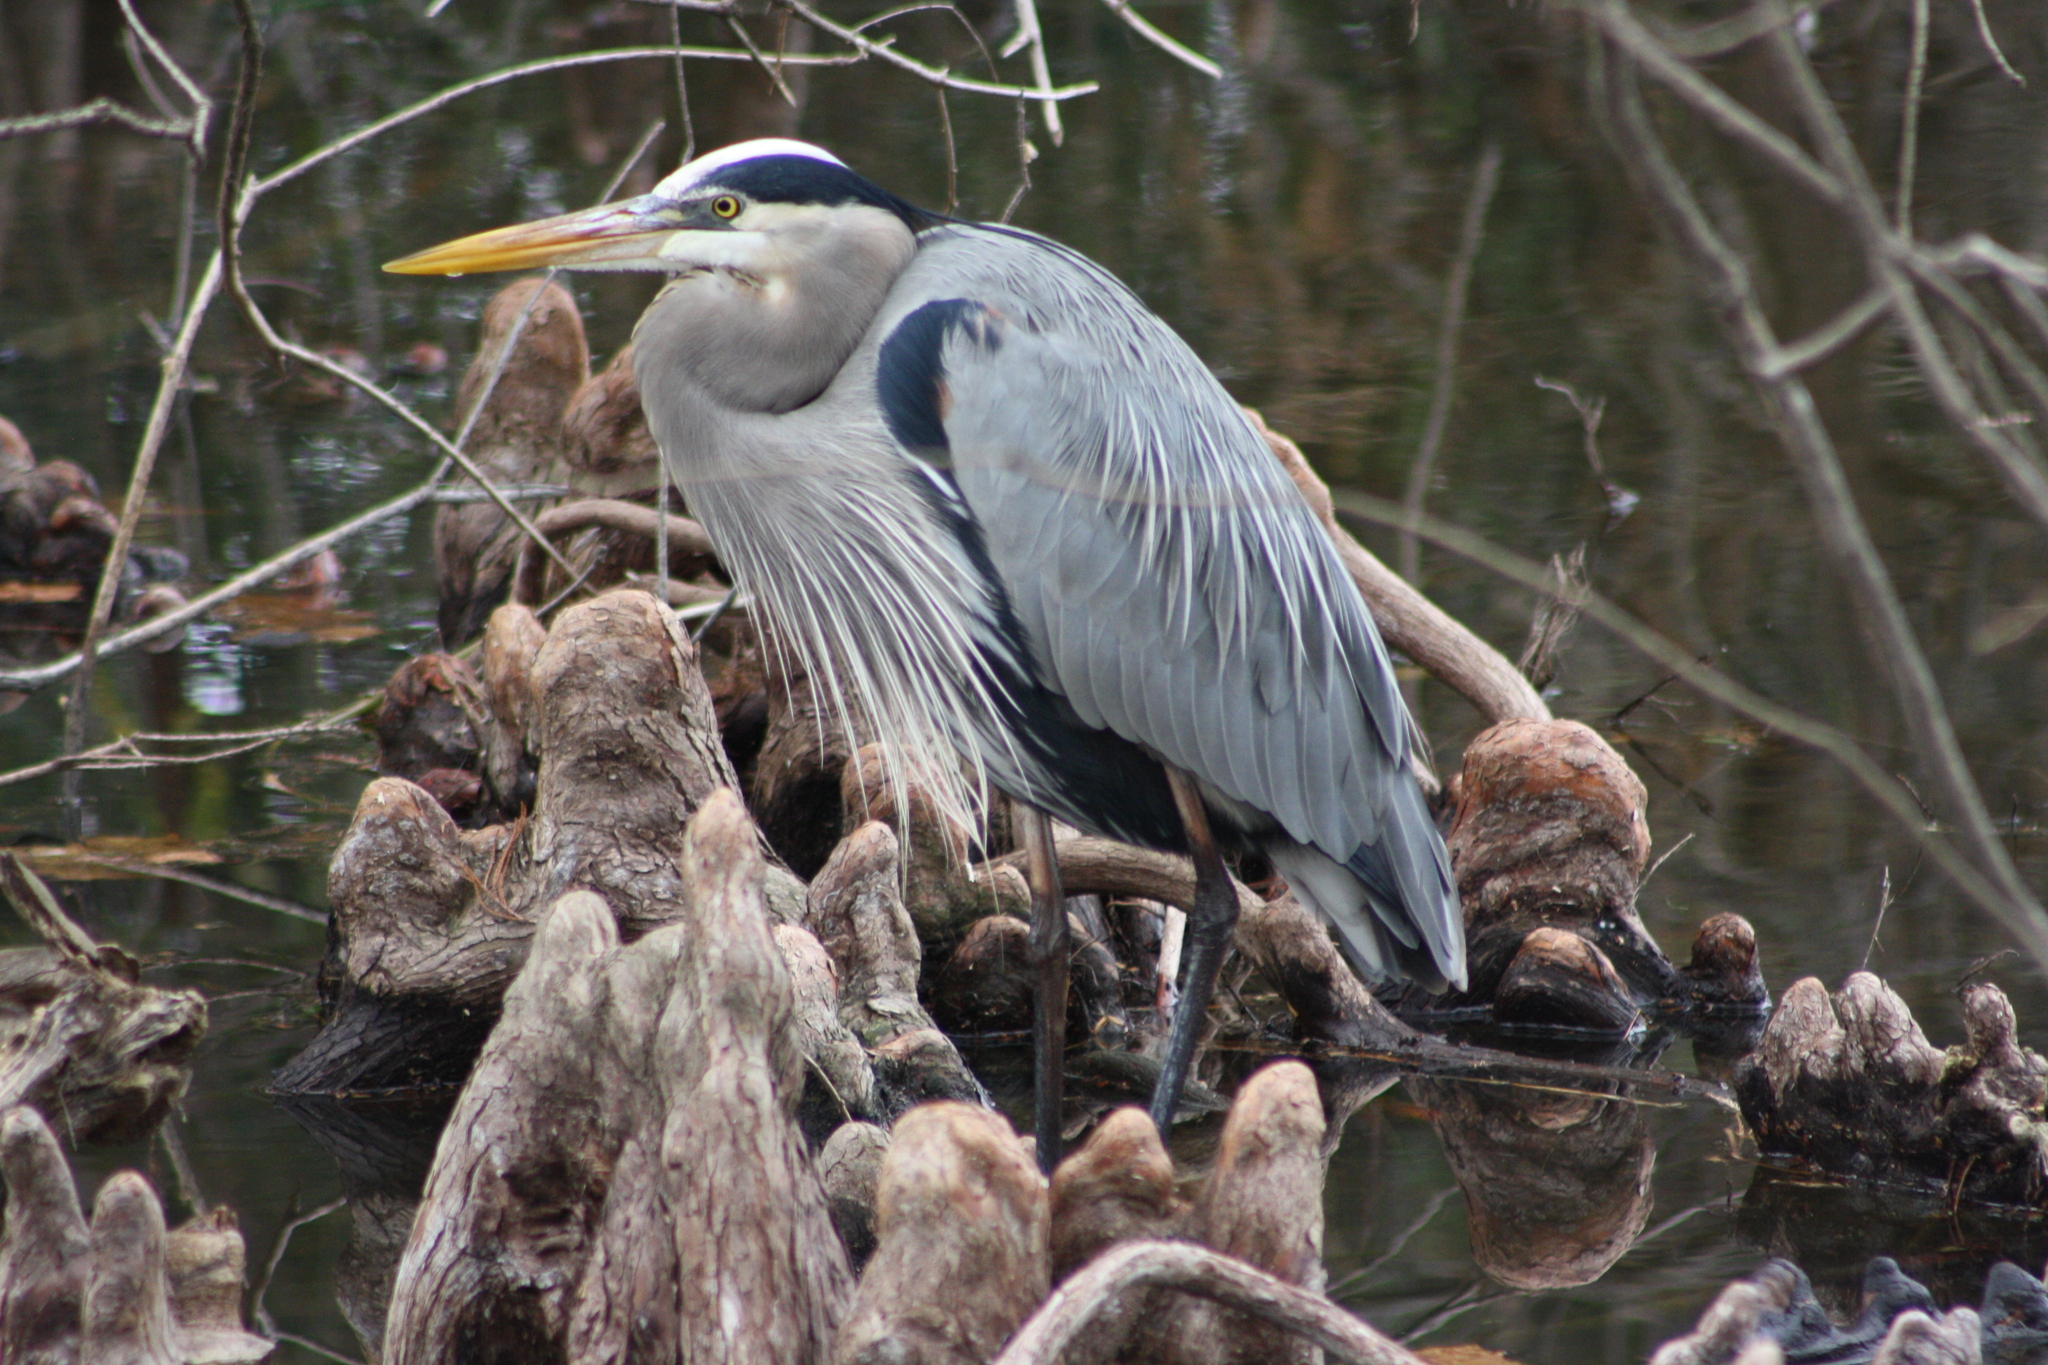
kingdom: Animalia
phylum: Chordata
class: Aves
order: Pelecaniformes
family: Ardeidae
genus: Ardea
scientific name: Ardea herodias
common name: Great blue heron
